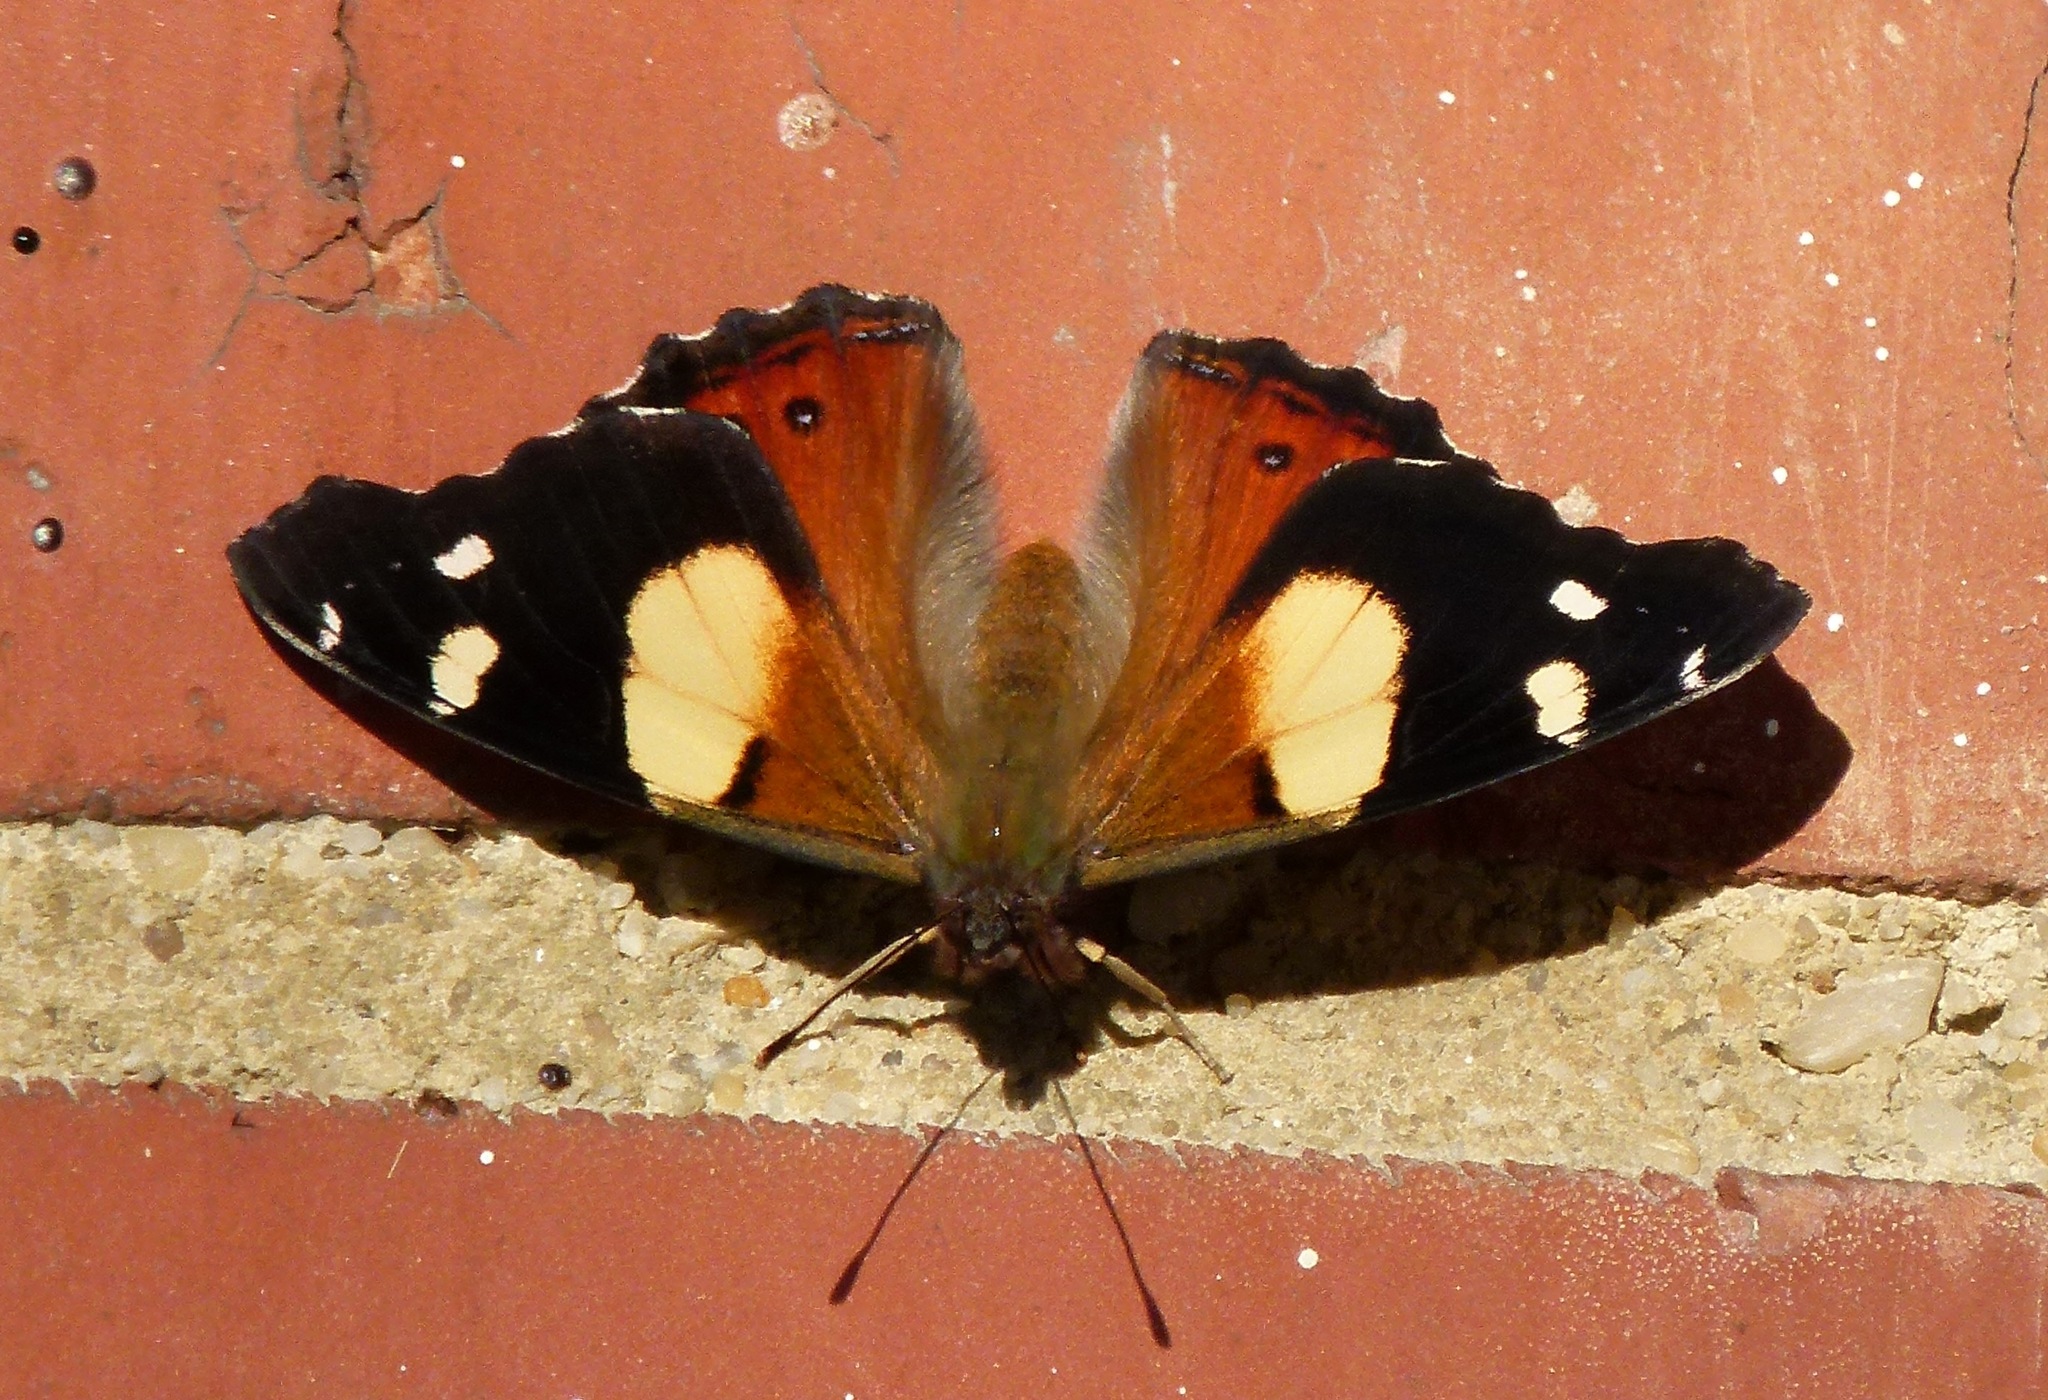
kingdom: Animalia
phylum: Arthropoda
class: Insecta
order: Lepidoptera
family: Nymphalidae
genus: Vanessa
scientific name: Vanessa itea
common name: Yellow admiral
